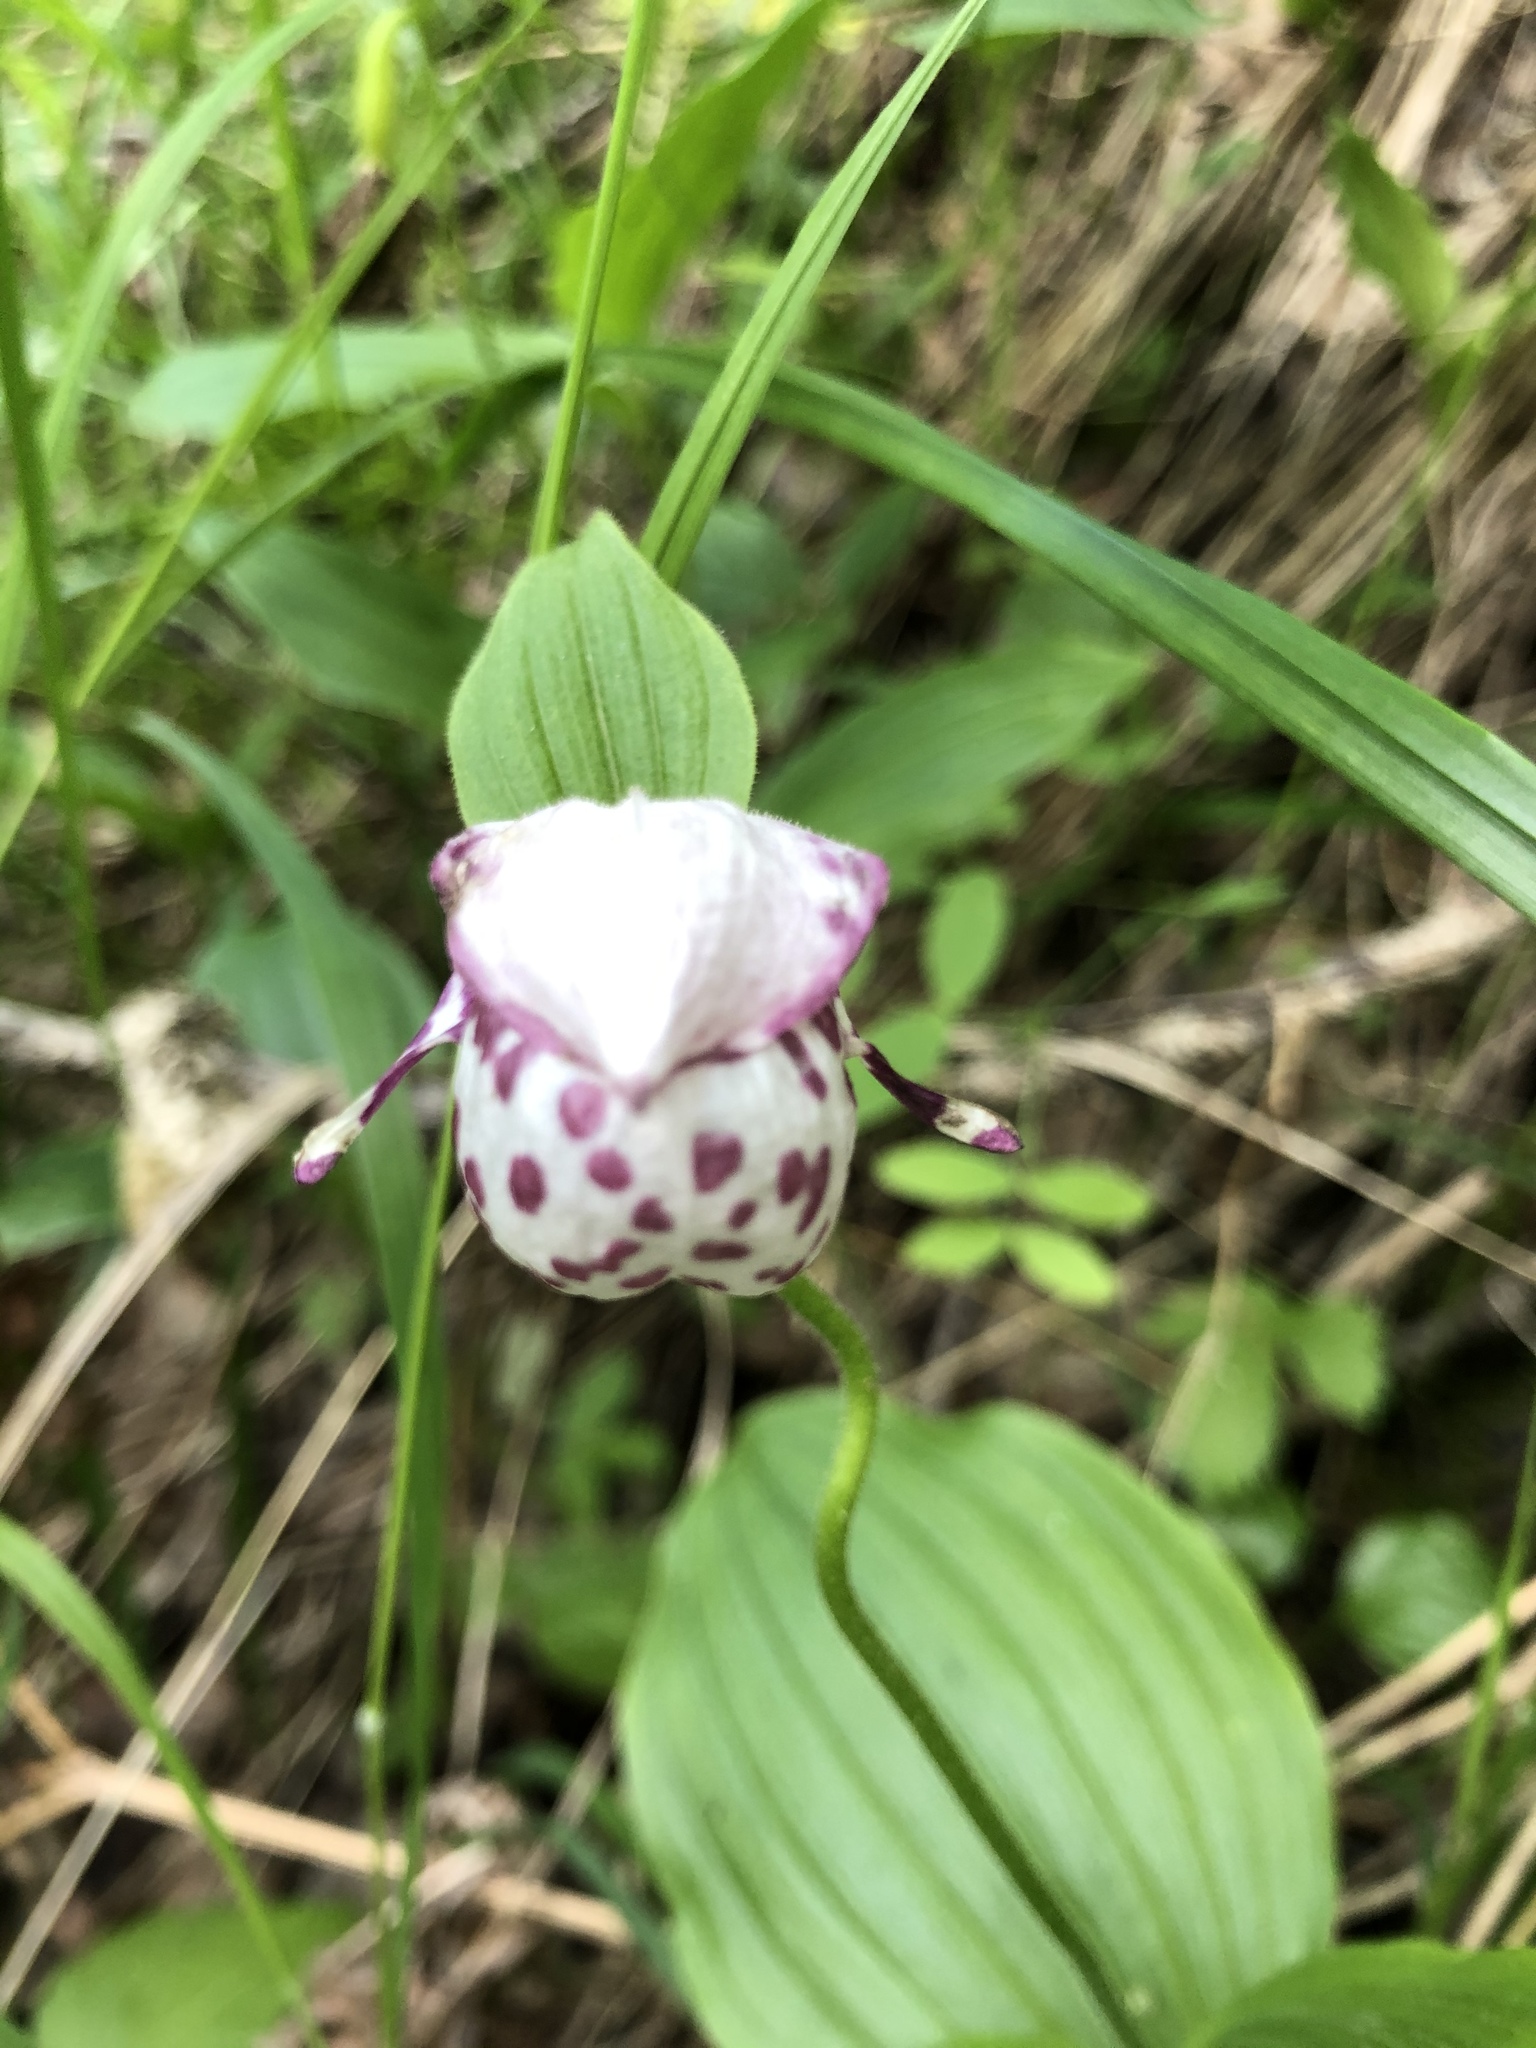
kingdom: Plantae
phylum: Tracheophyta
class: Liliopsida
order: Asparagales
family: Orchidaceae
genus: Cypripedium
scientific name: Cypripedium guttatum
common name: Pink lady slipper
